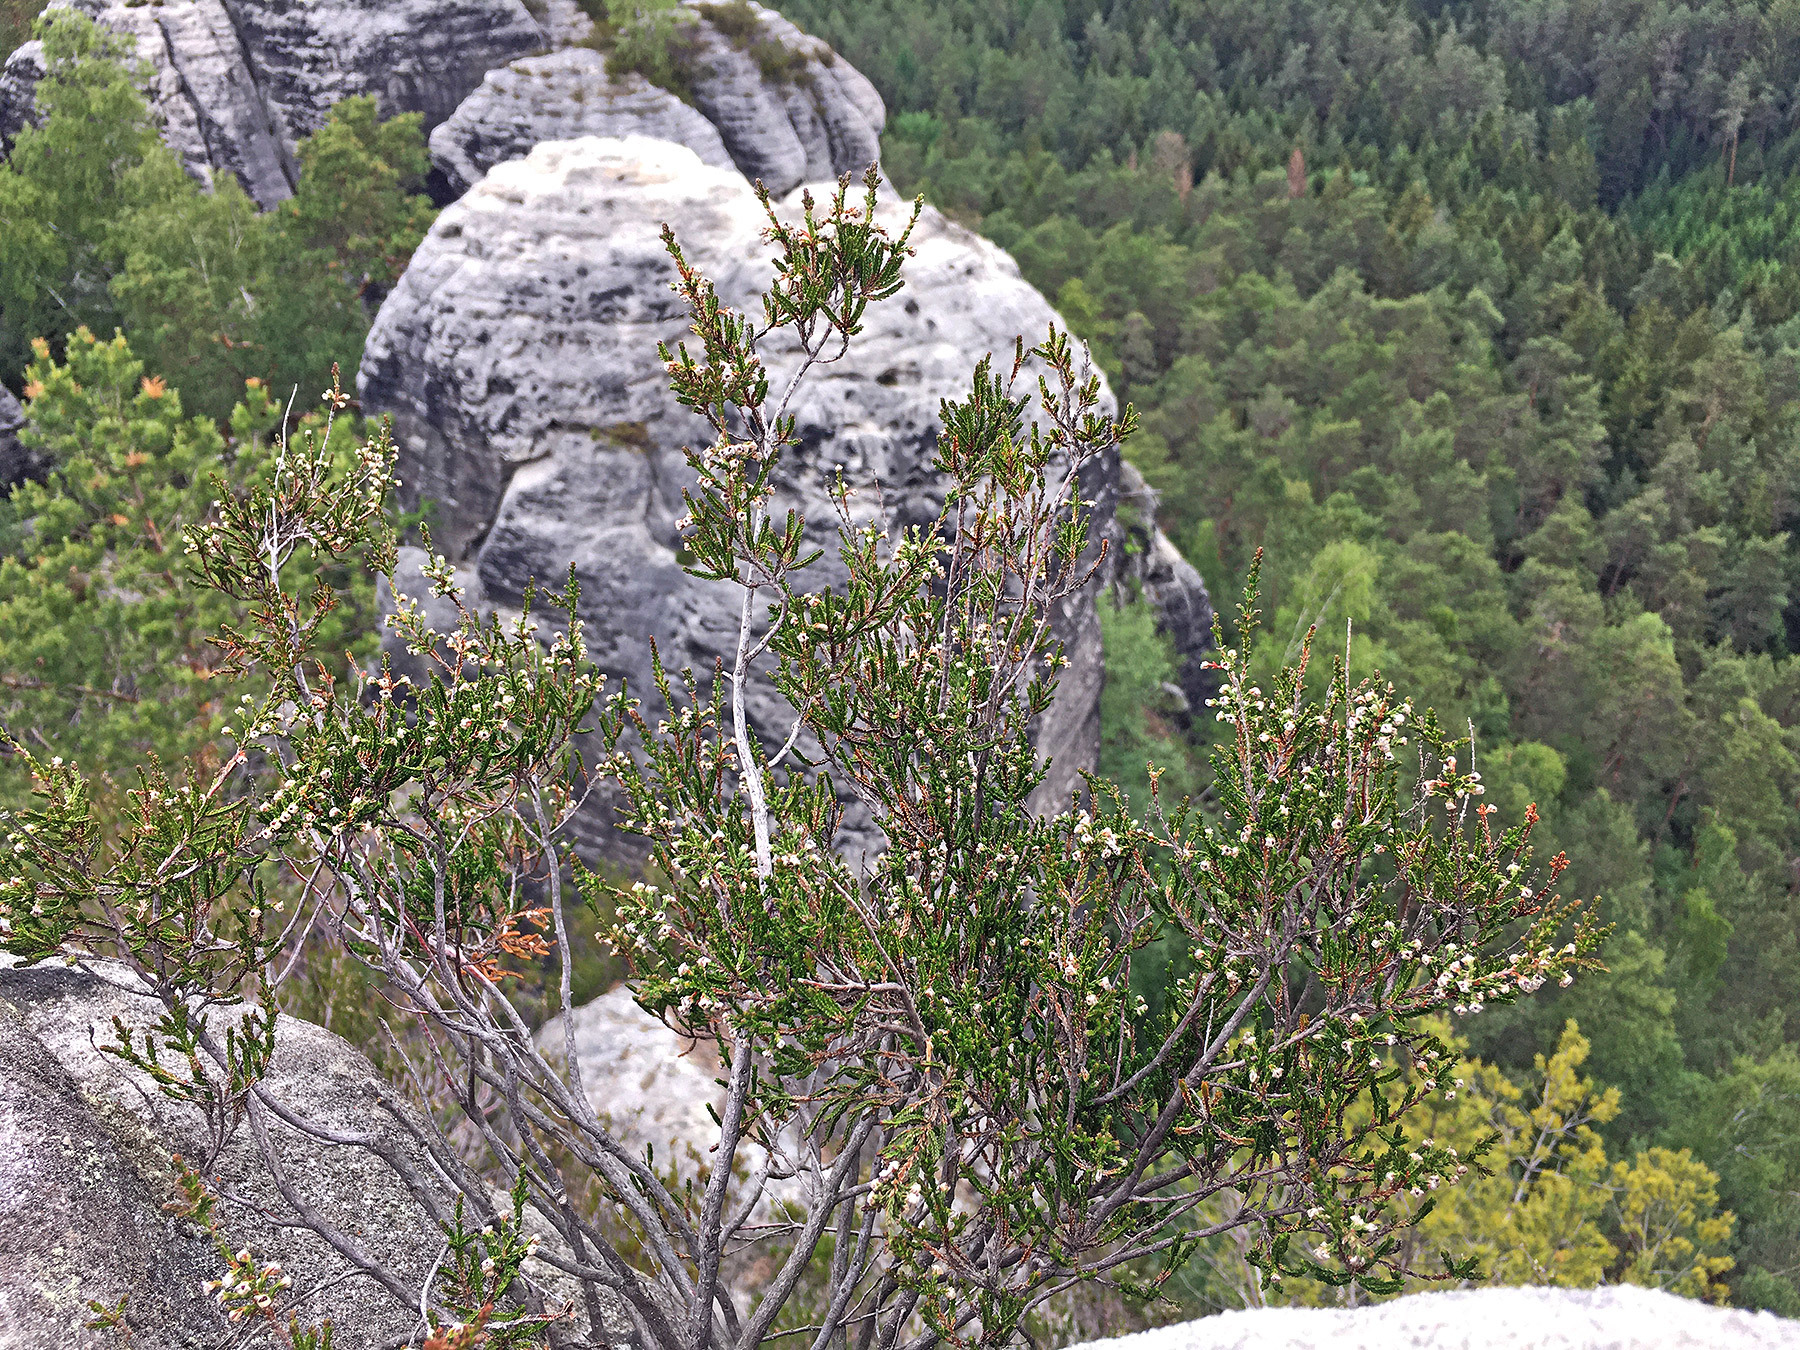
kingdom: Plantae
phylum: Tracheophyta
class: Magnoliopsida
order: Ericales
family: Ericaceae
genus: Calluna
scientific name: Calluna vulgaris
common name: Heather
